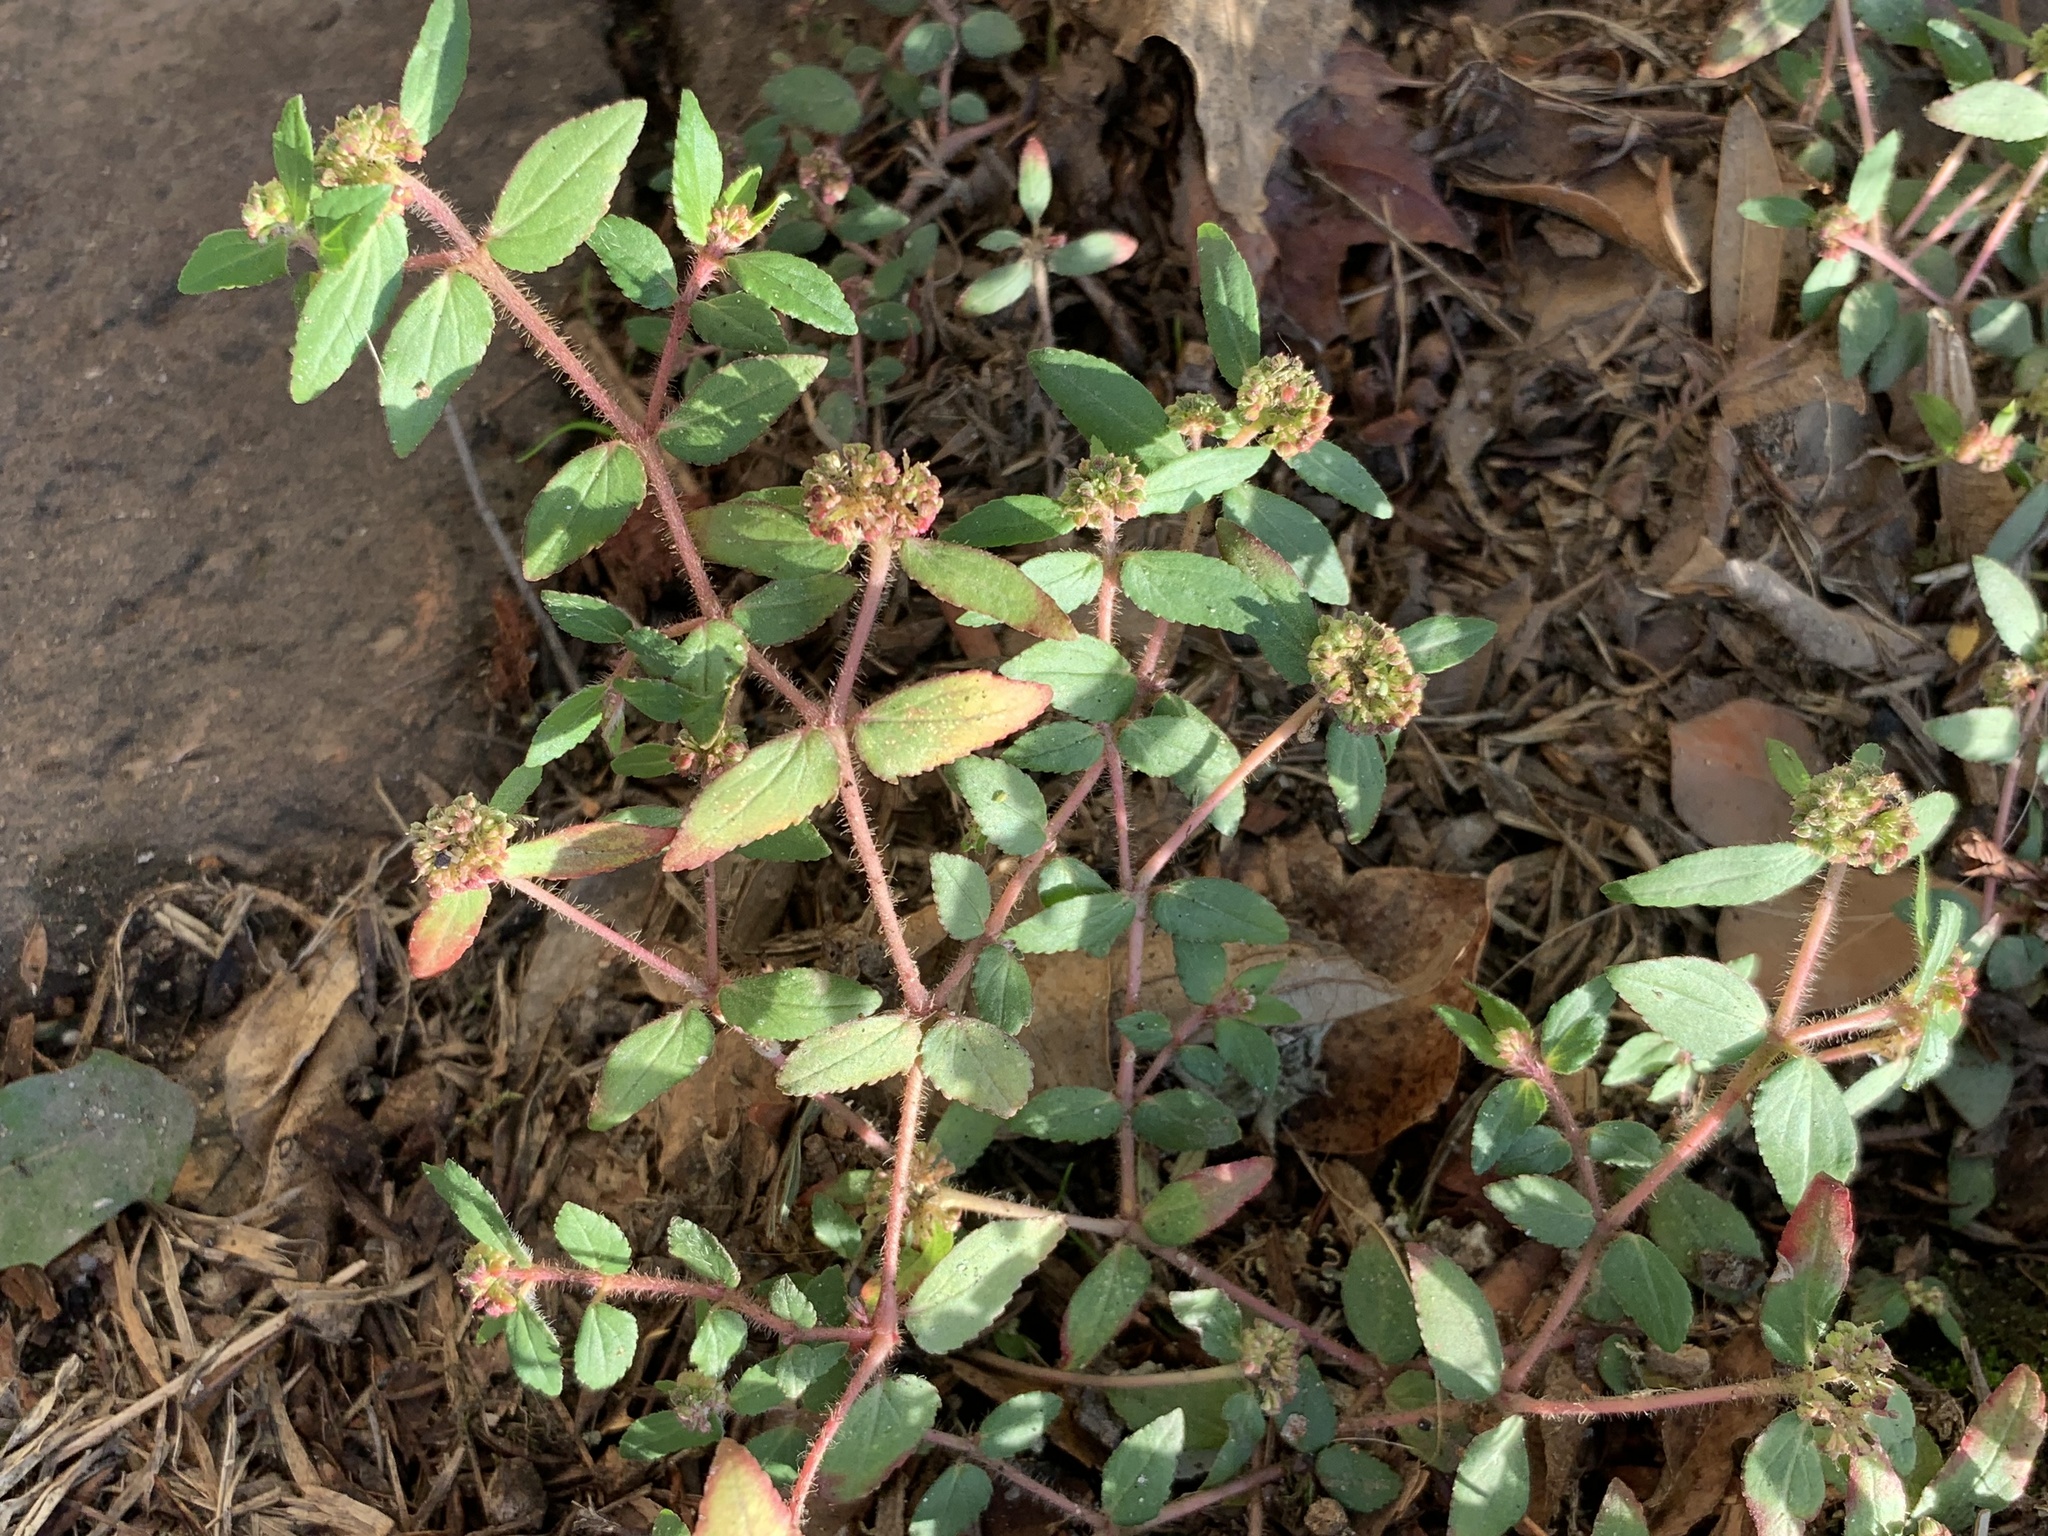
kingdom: Plantae
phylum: Tracheophyta
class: Magnoliopsida
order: Malpighiales
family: Euphorbiaceae
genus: Euphorbia
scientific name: Euphorbia ophthalmica
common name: Florida hammock sandmat
